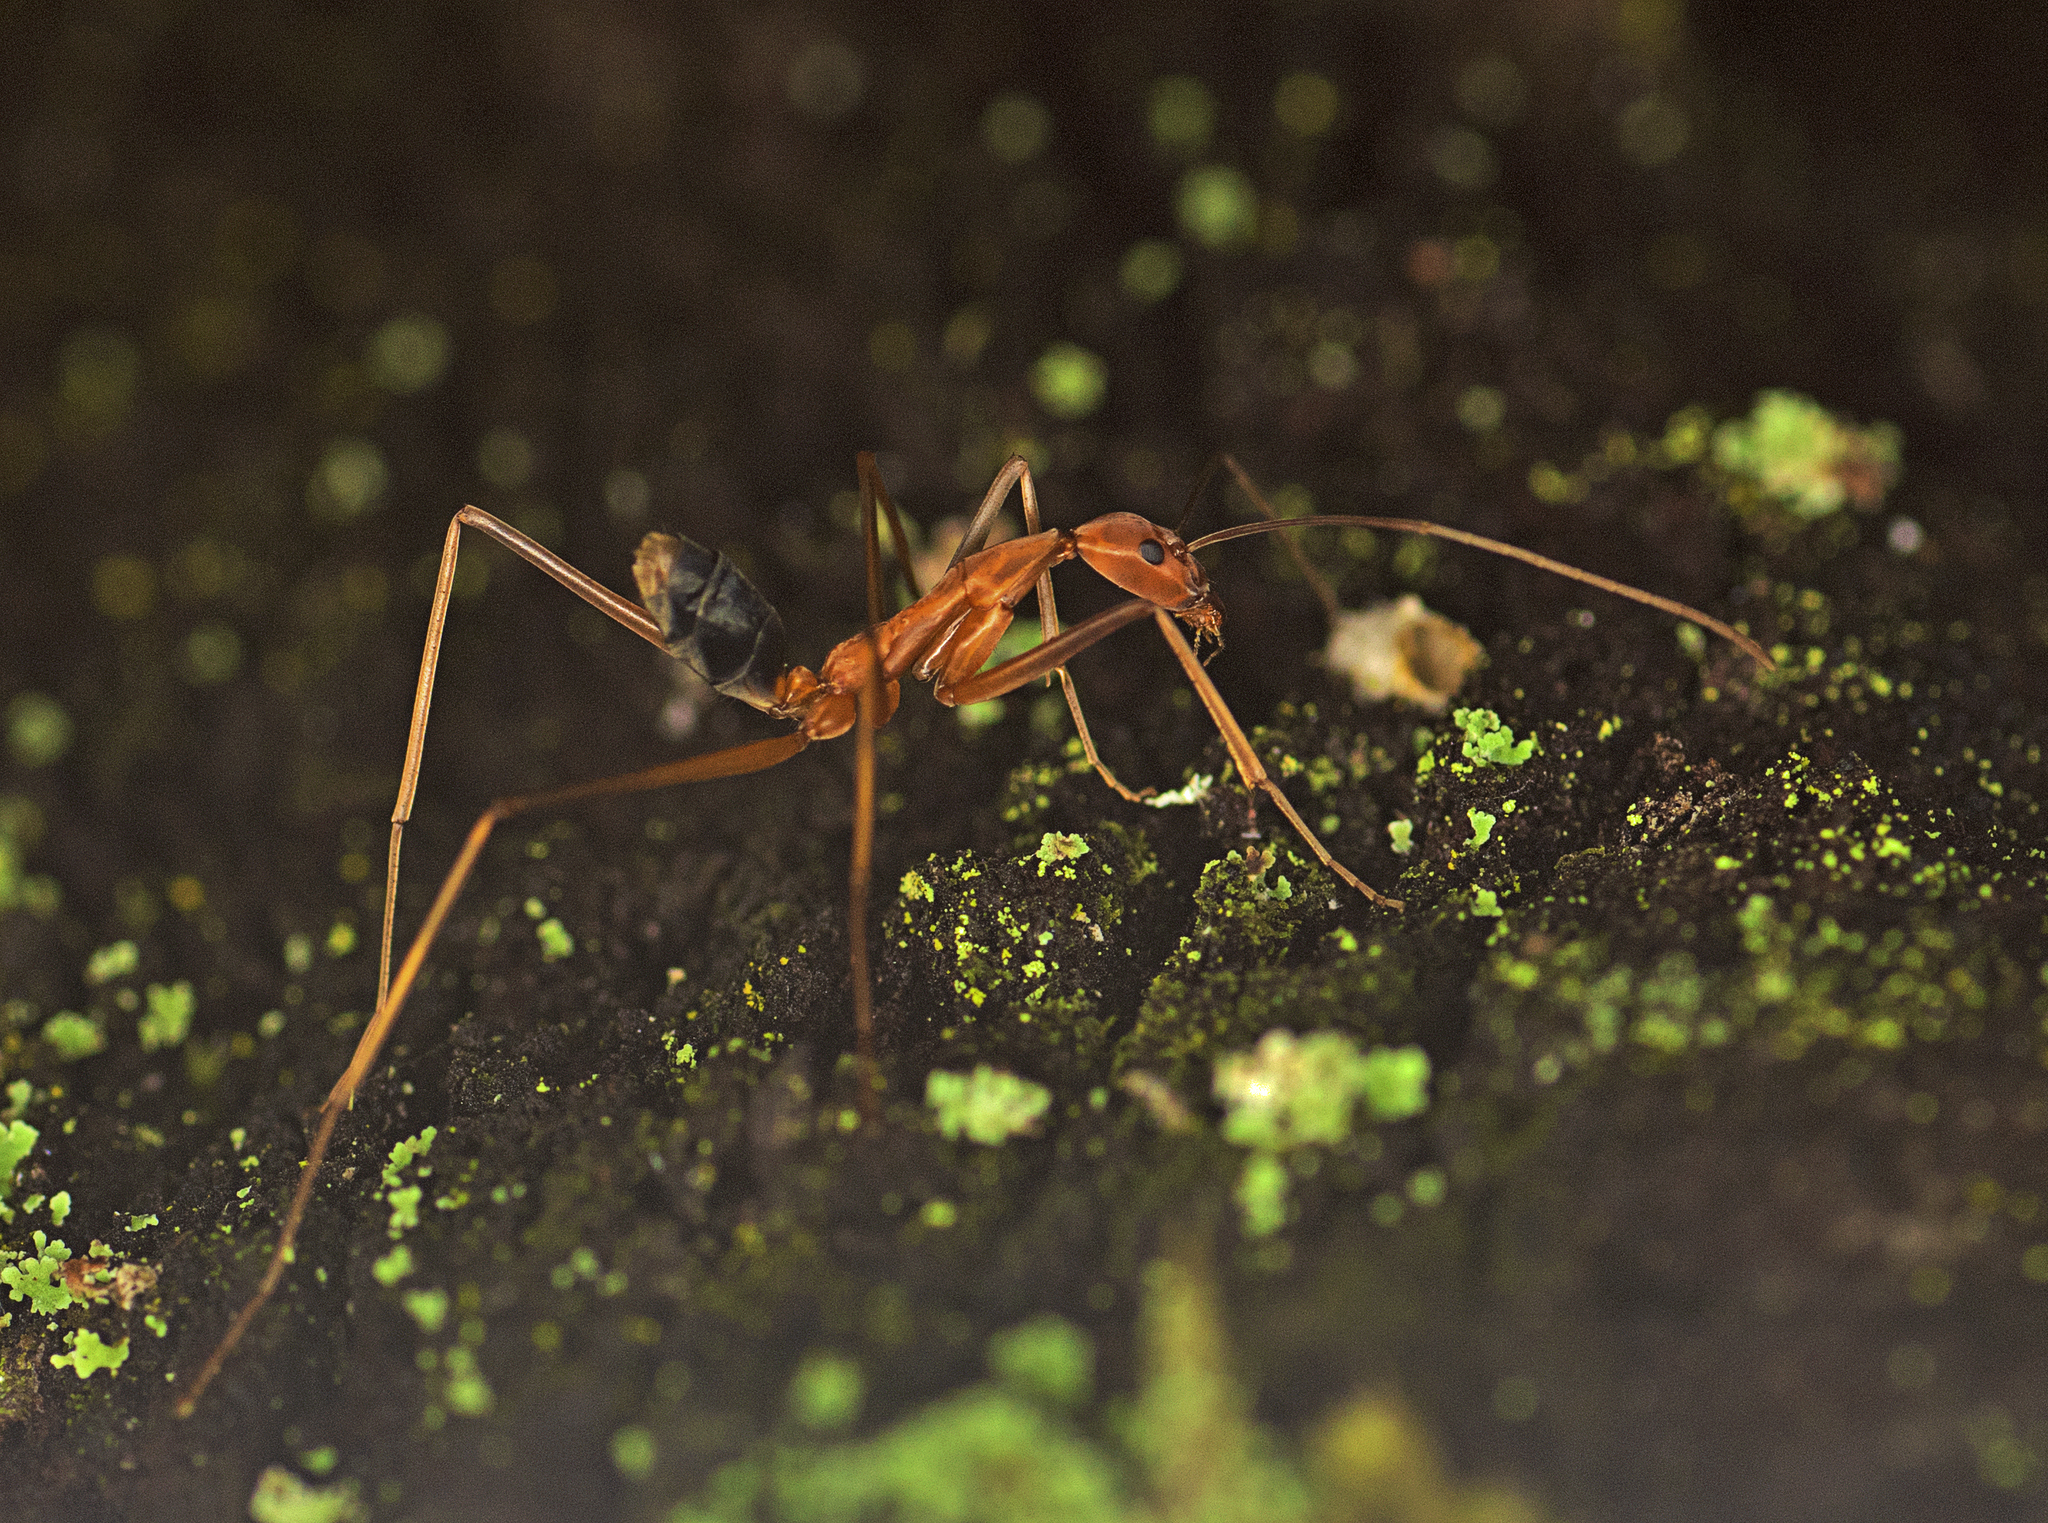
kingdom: Animalia
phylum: Arthropoda
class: Insecta
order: Hymenoptera
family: Formicidae
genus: Leptomyrmex
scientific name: Leptomyrmex rufipes
